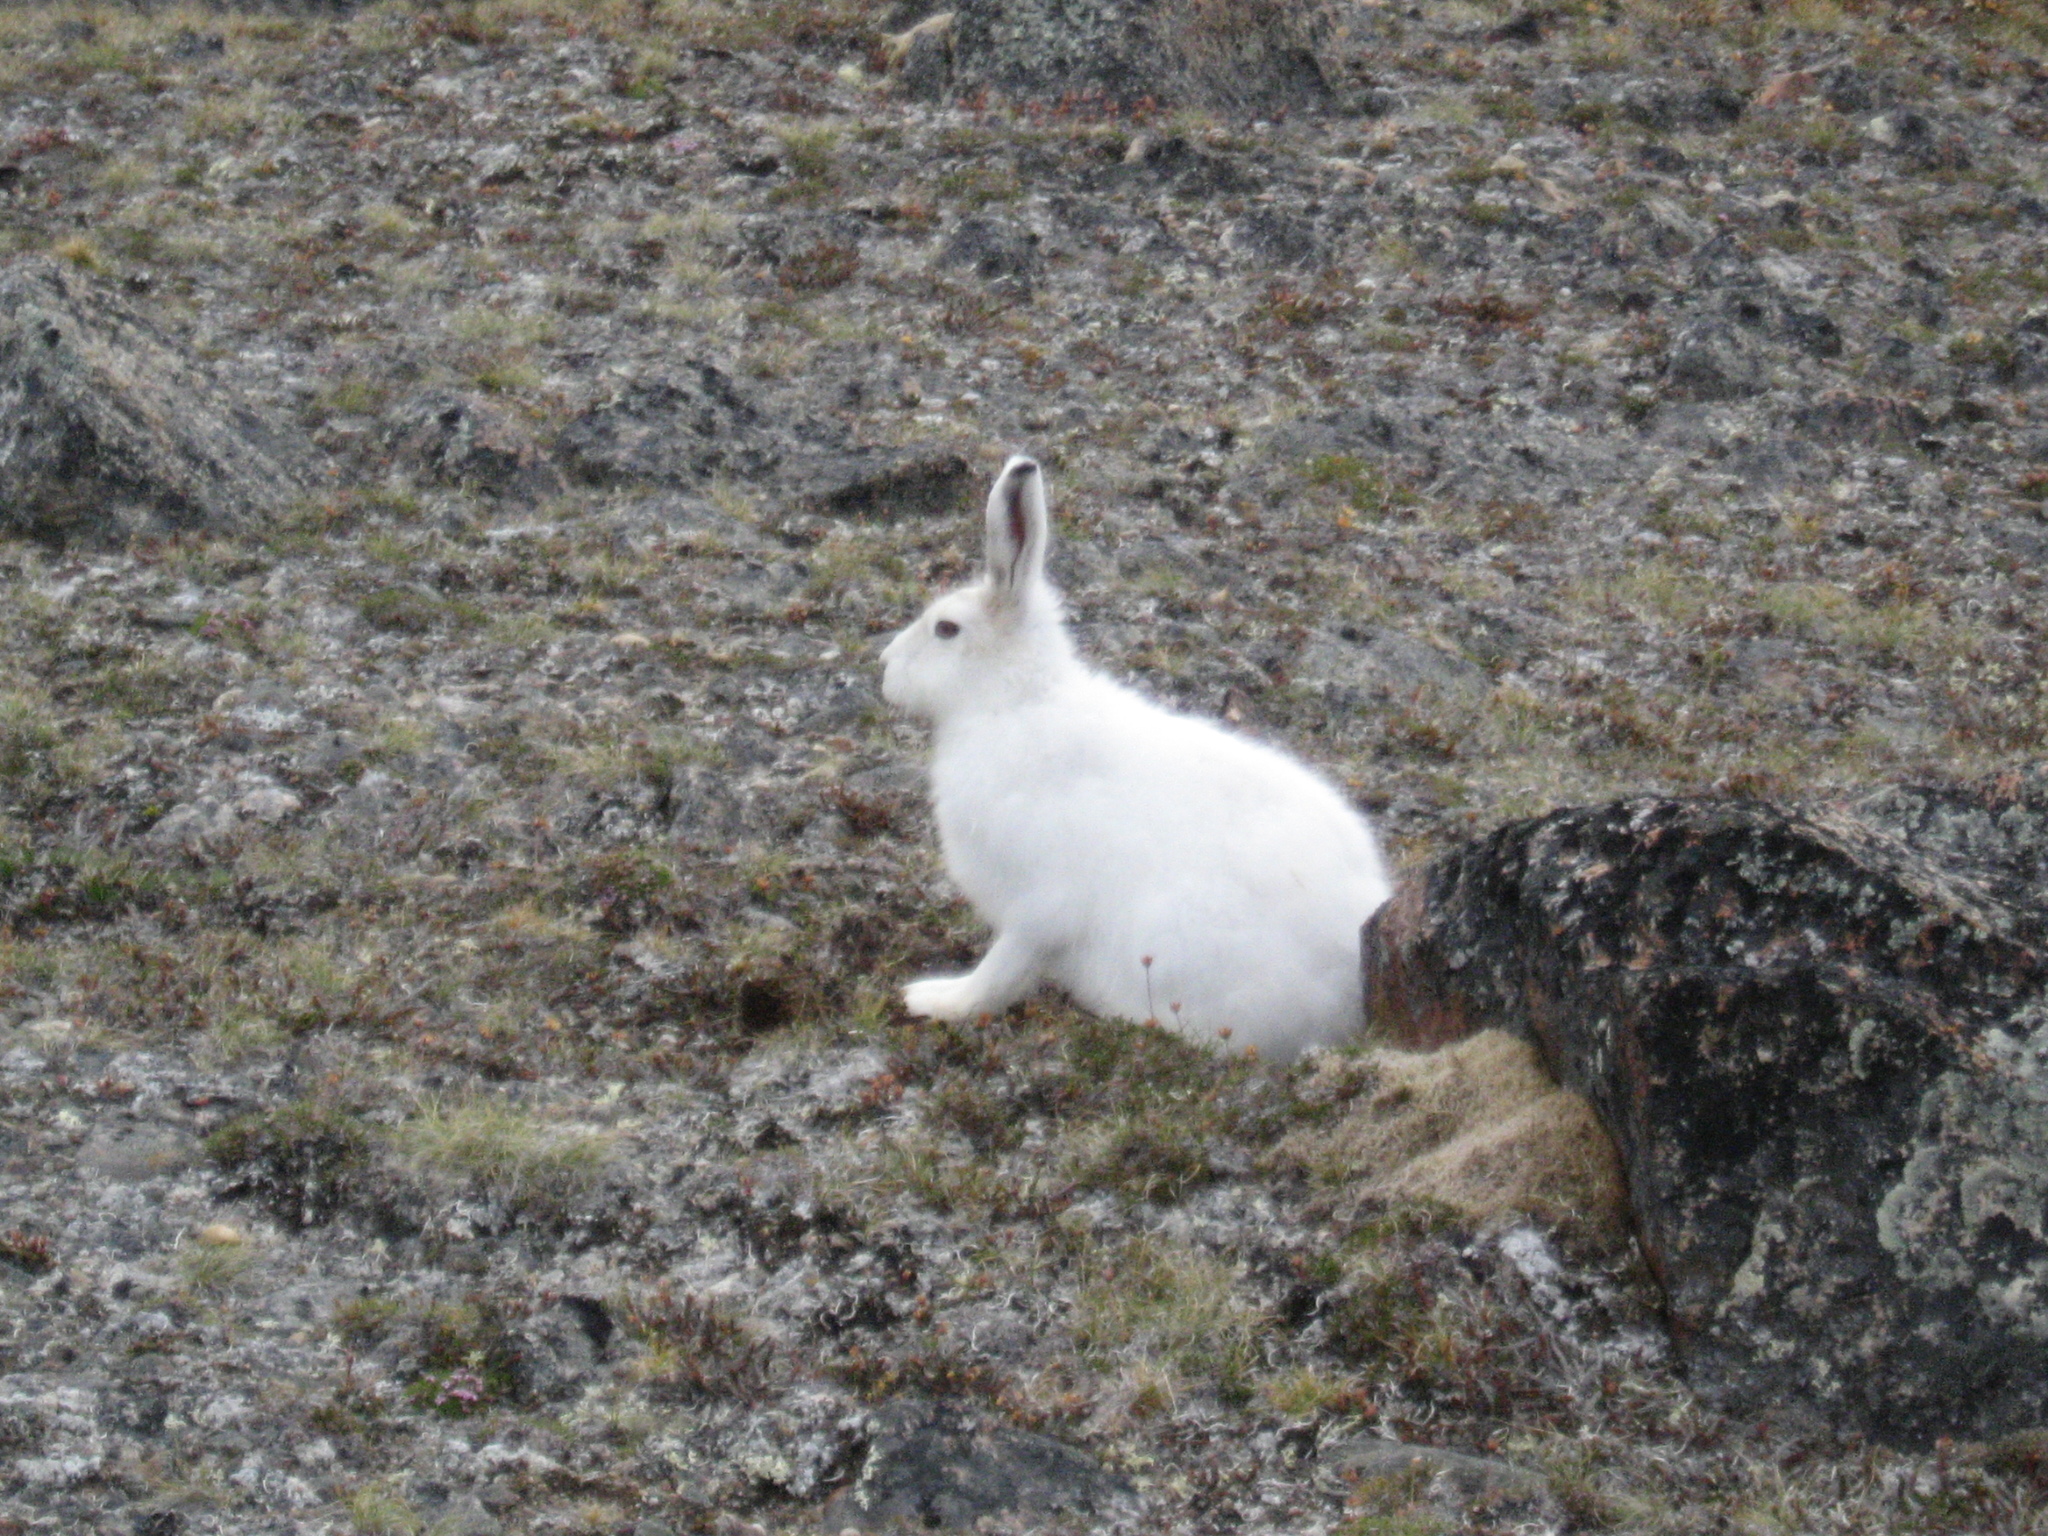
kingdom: Animalia
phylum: Chordata
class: Mammalia
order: Lagomorpha
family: Leporidae
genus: Lepus
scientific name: Lepus arcticus
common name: Arctic hare
